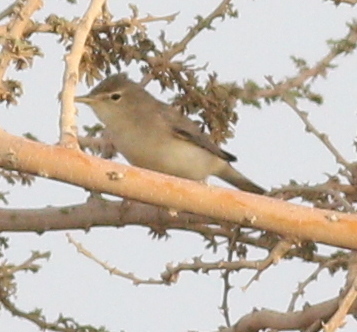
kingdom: Animalia
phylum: Chordata
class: Aves
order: Passeriformes
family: Acrocephalidae
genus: Iduna
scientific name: Iduna pallida
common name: Eastern olivaceous warbler
